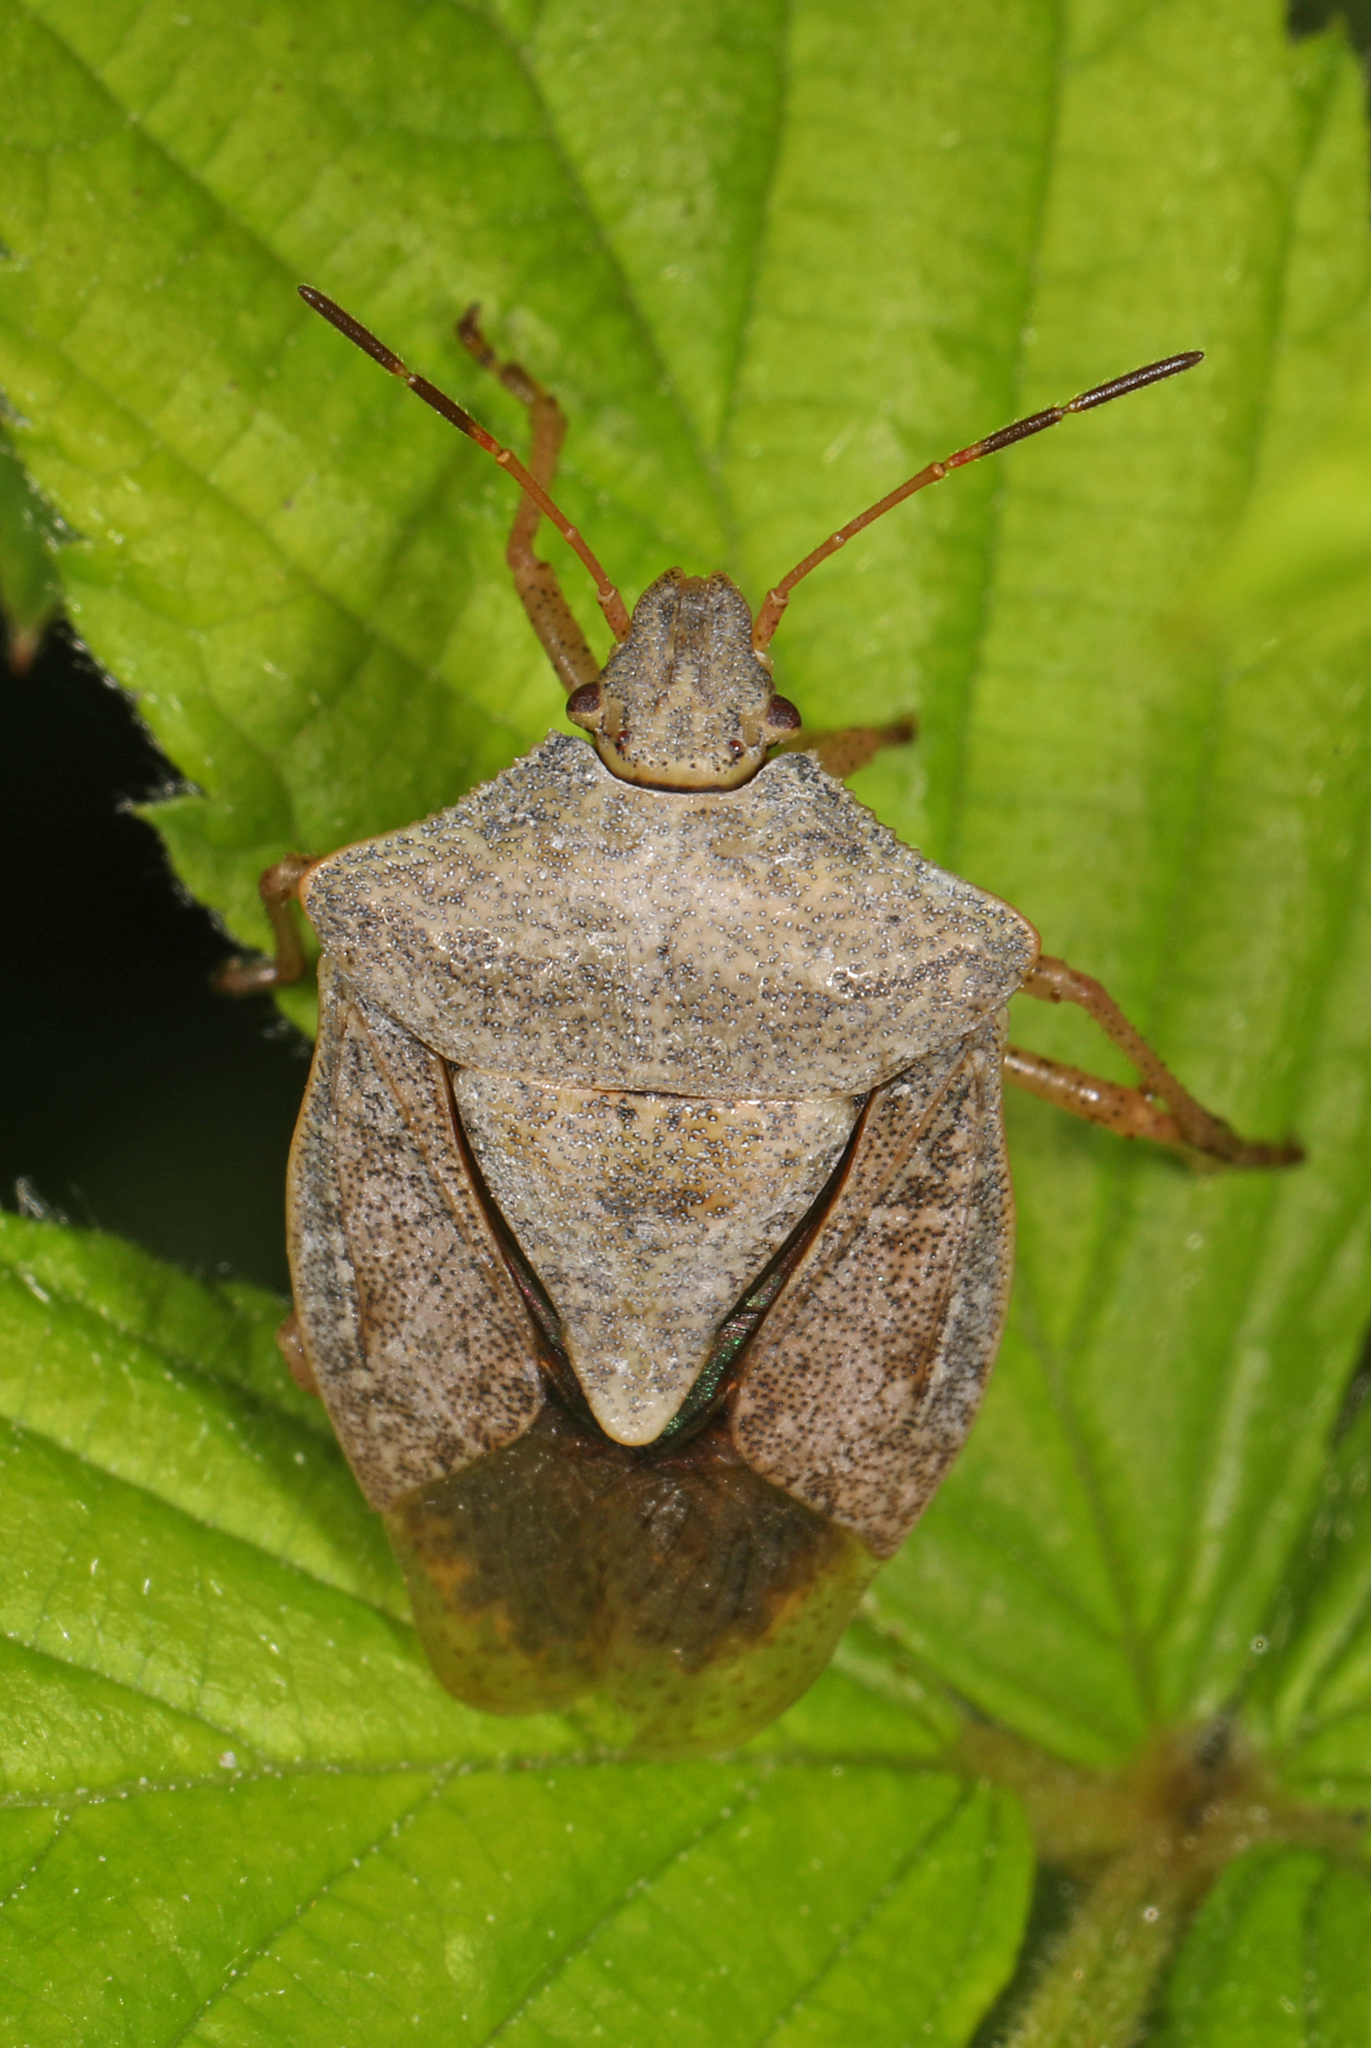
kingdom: Animalia
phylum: Arthropoda
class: Insecta
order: Hemiptera
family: Pentatomidae
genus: Euschistus
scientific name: Euschistus servus
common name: Brown stink bug
